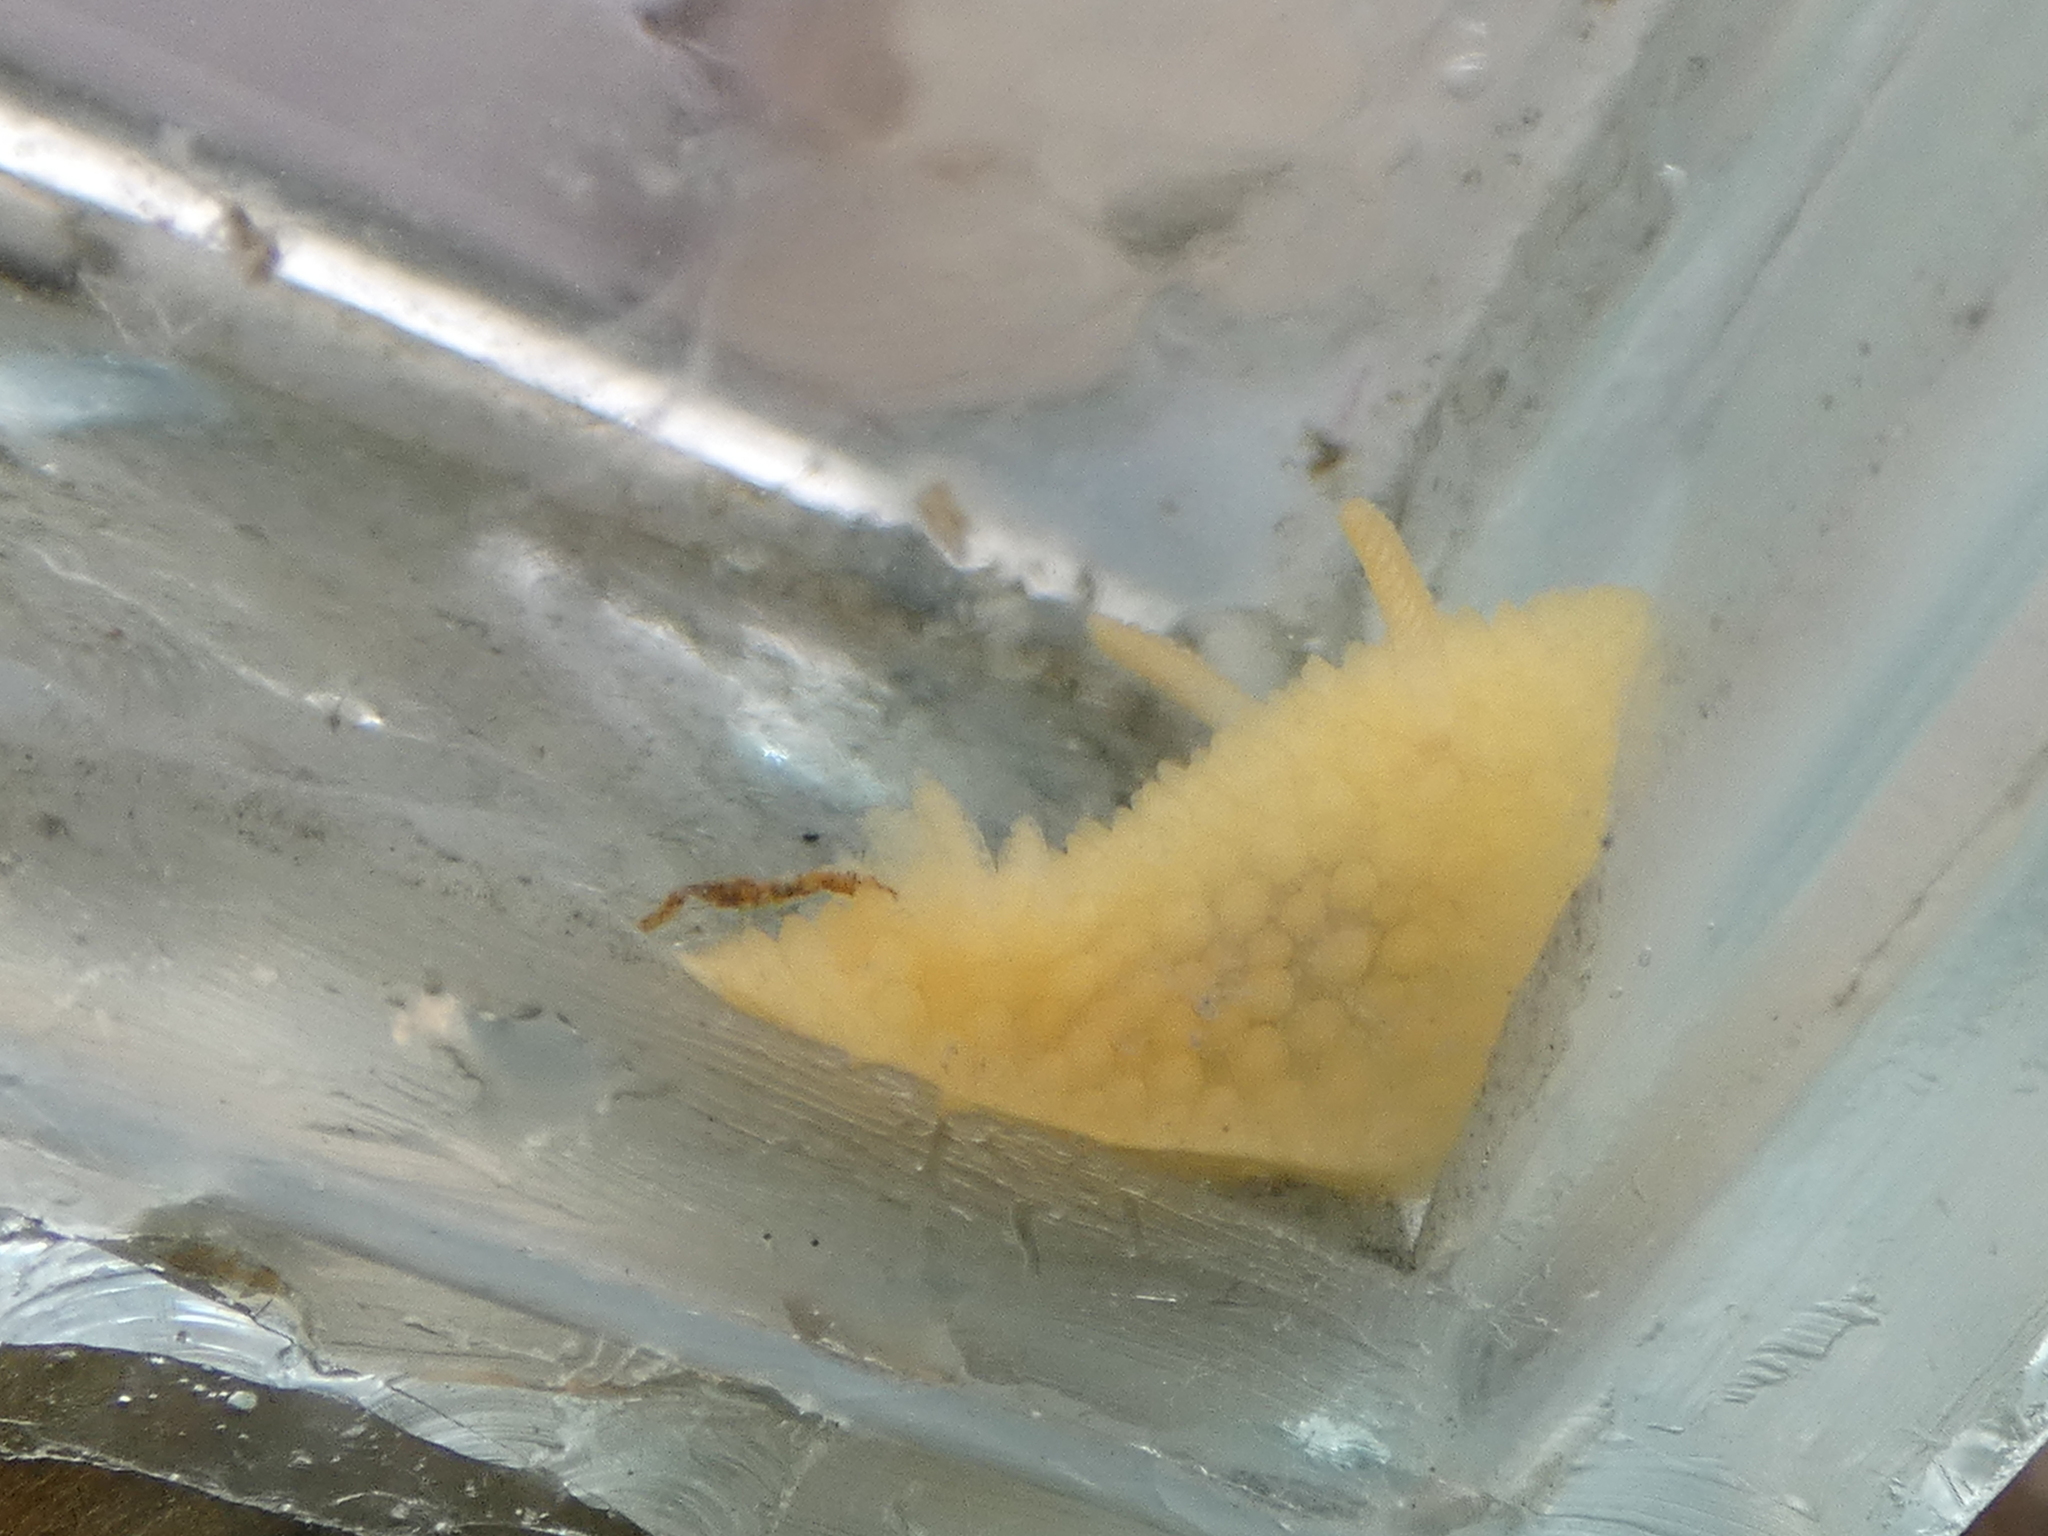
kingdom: Animalia
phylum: Mollusca
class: Gastropoda
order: Nudibranchia
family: Onchidorididae
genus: Adalaria
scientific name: Adalaria proxima
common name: False doris
